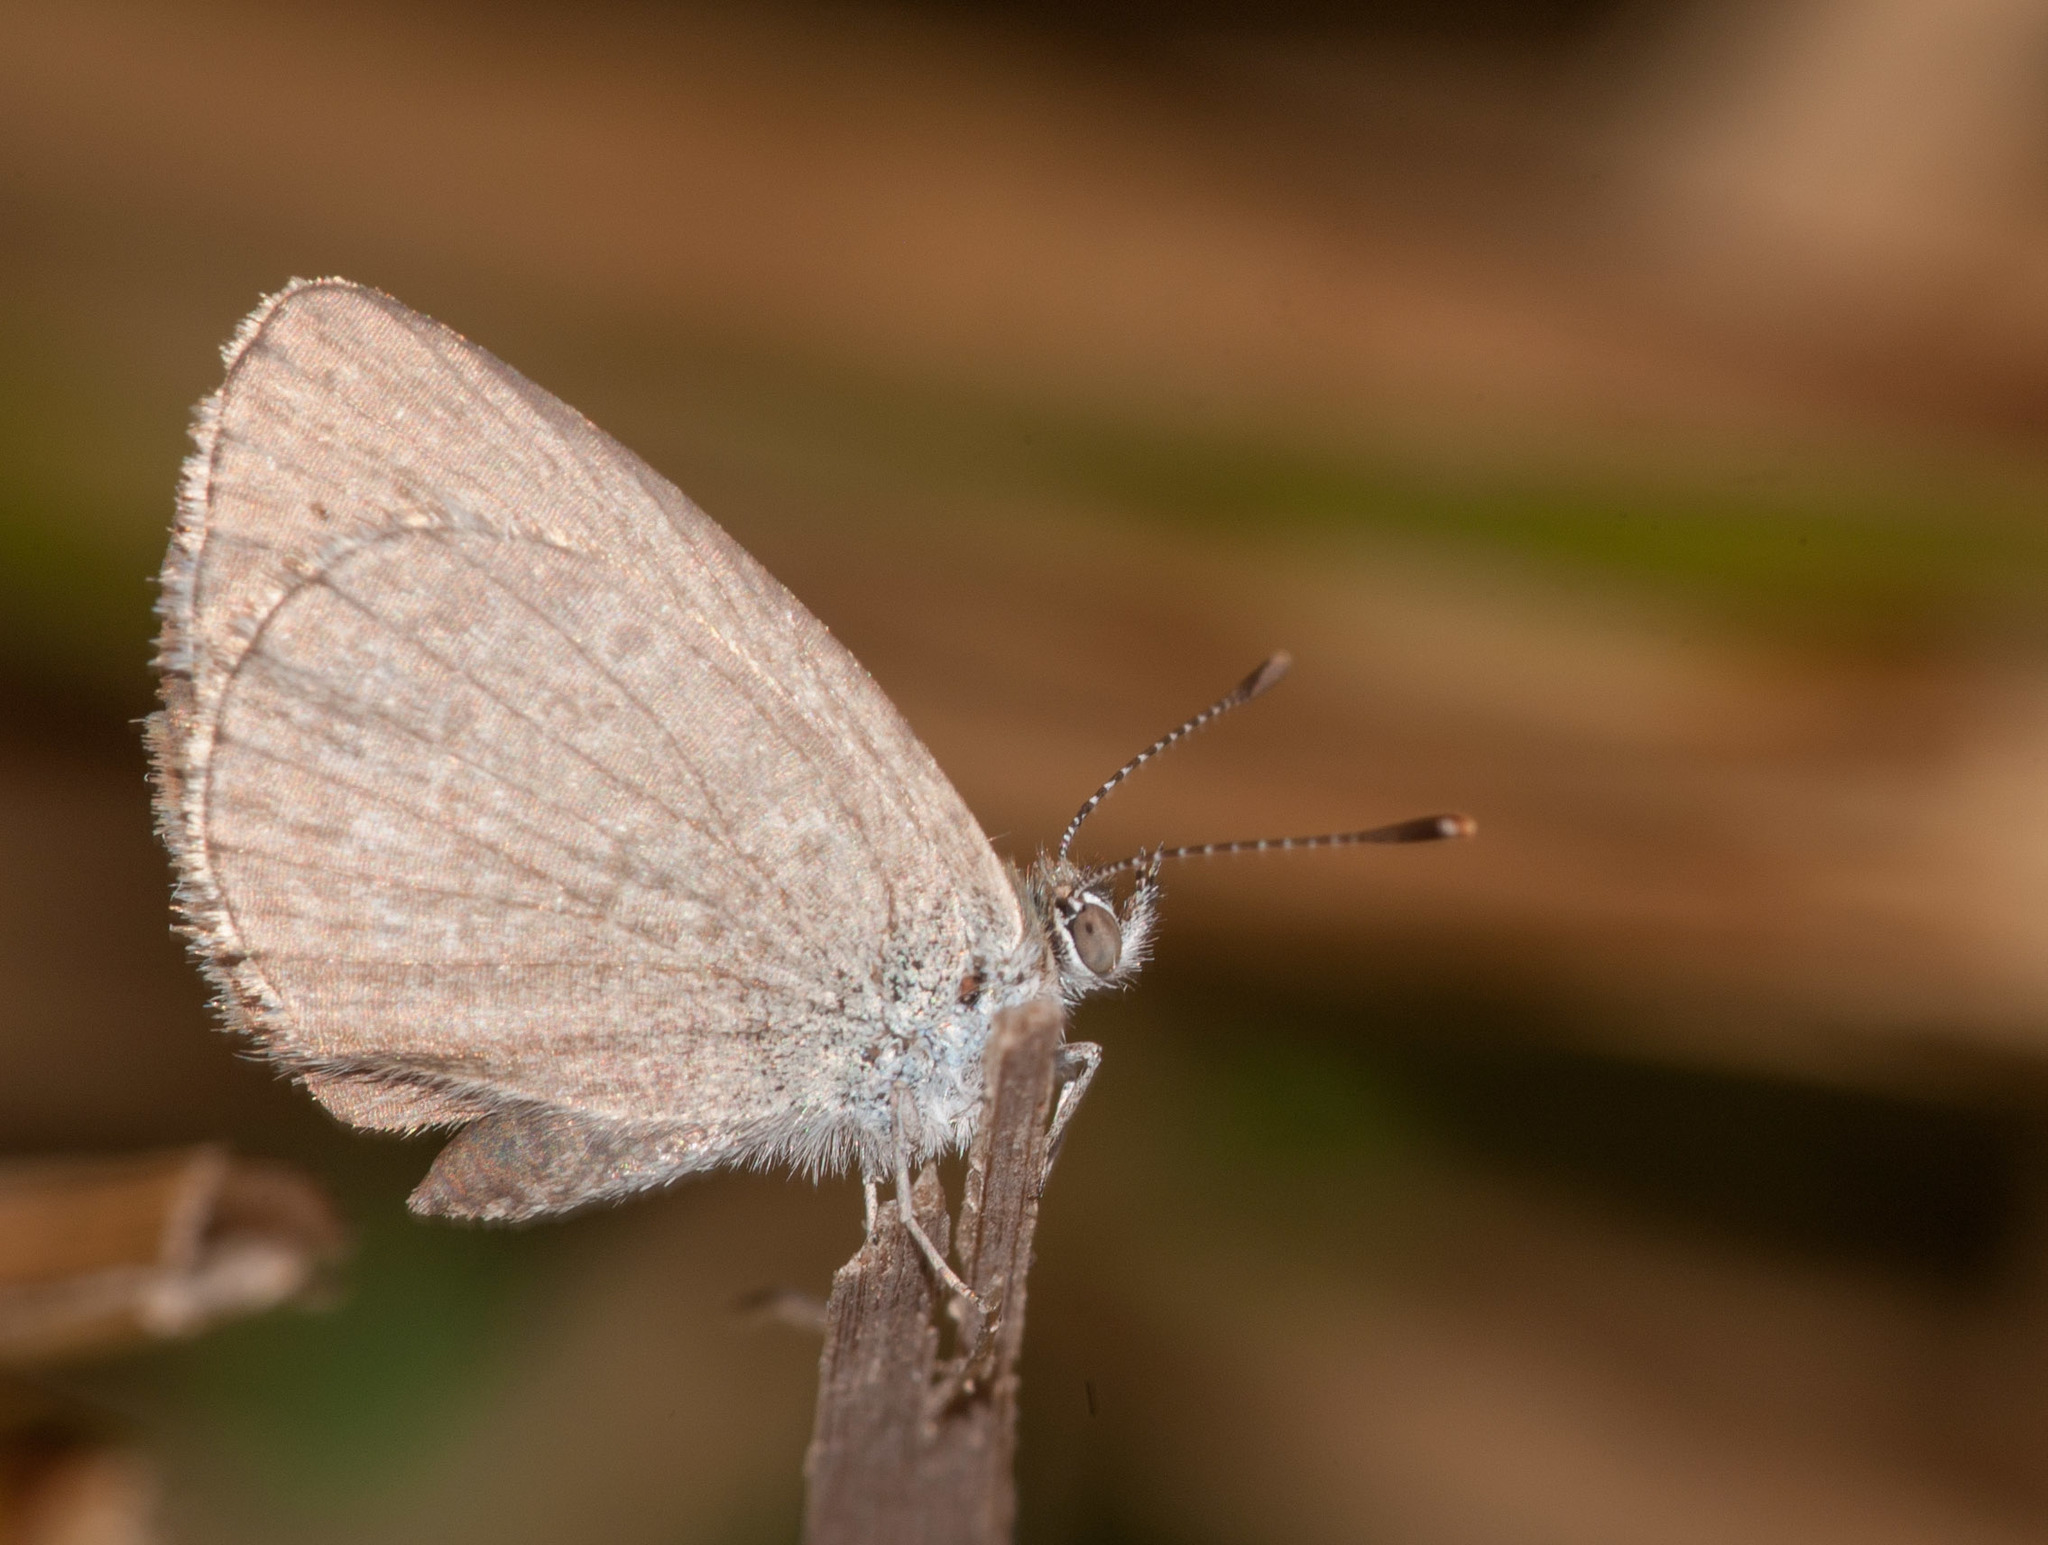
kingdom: Animalia
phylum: Arthropoda
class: Insecta
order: Lepidoptera
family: Lycaenidae
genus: Zizina
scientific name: Zizina labradus
